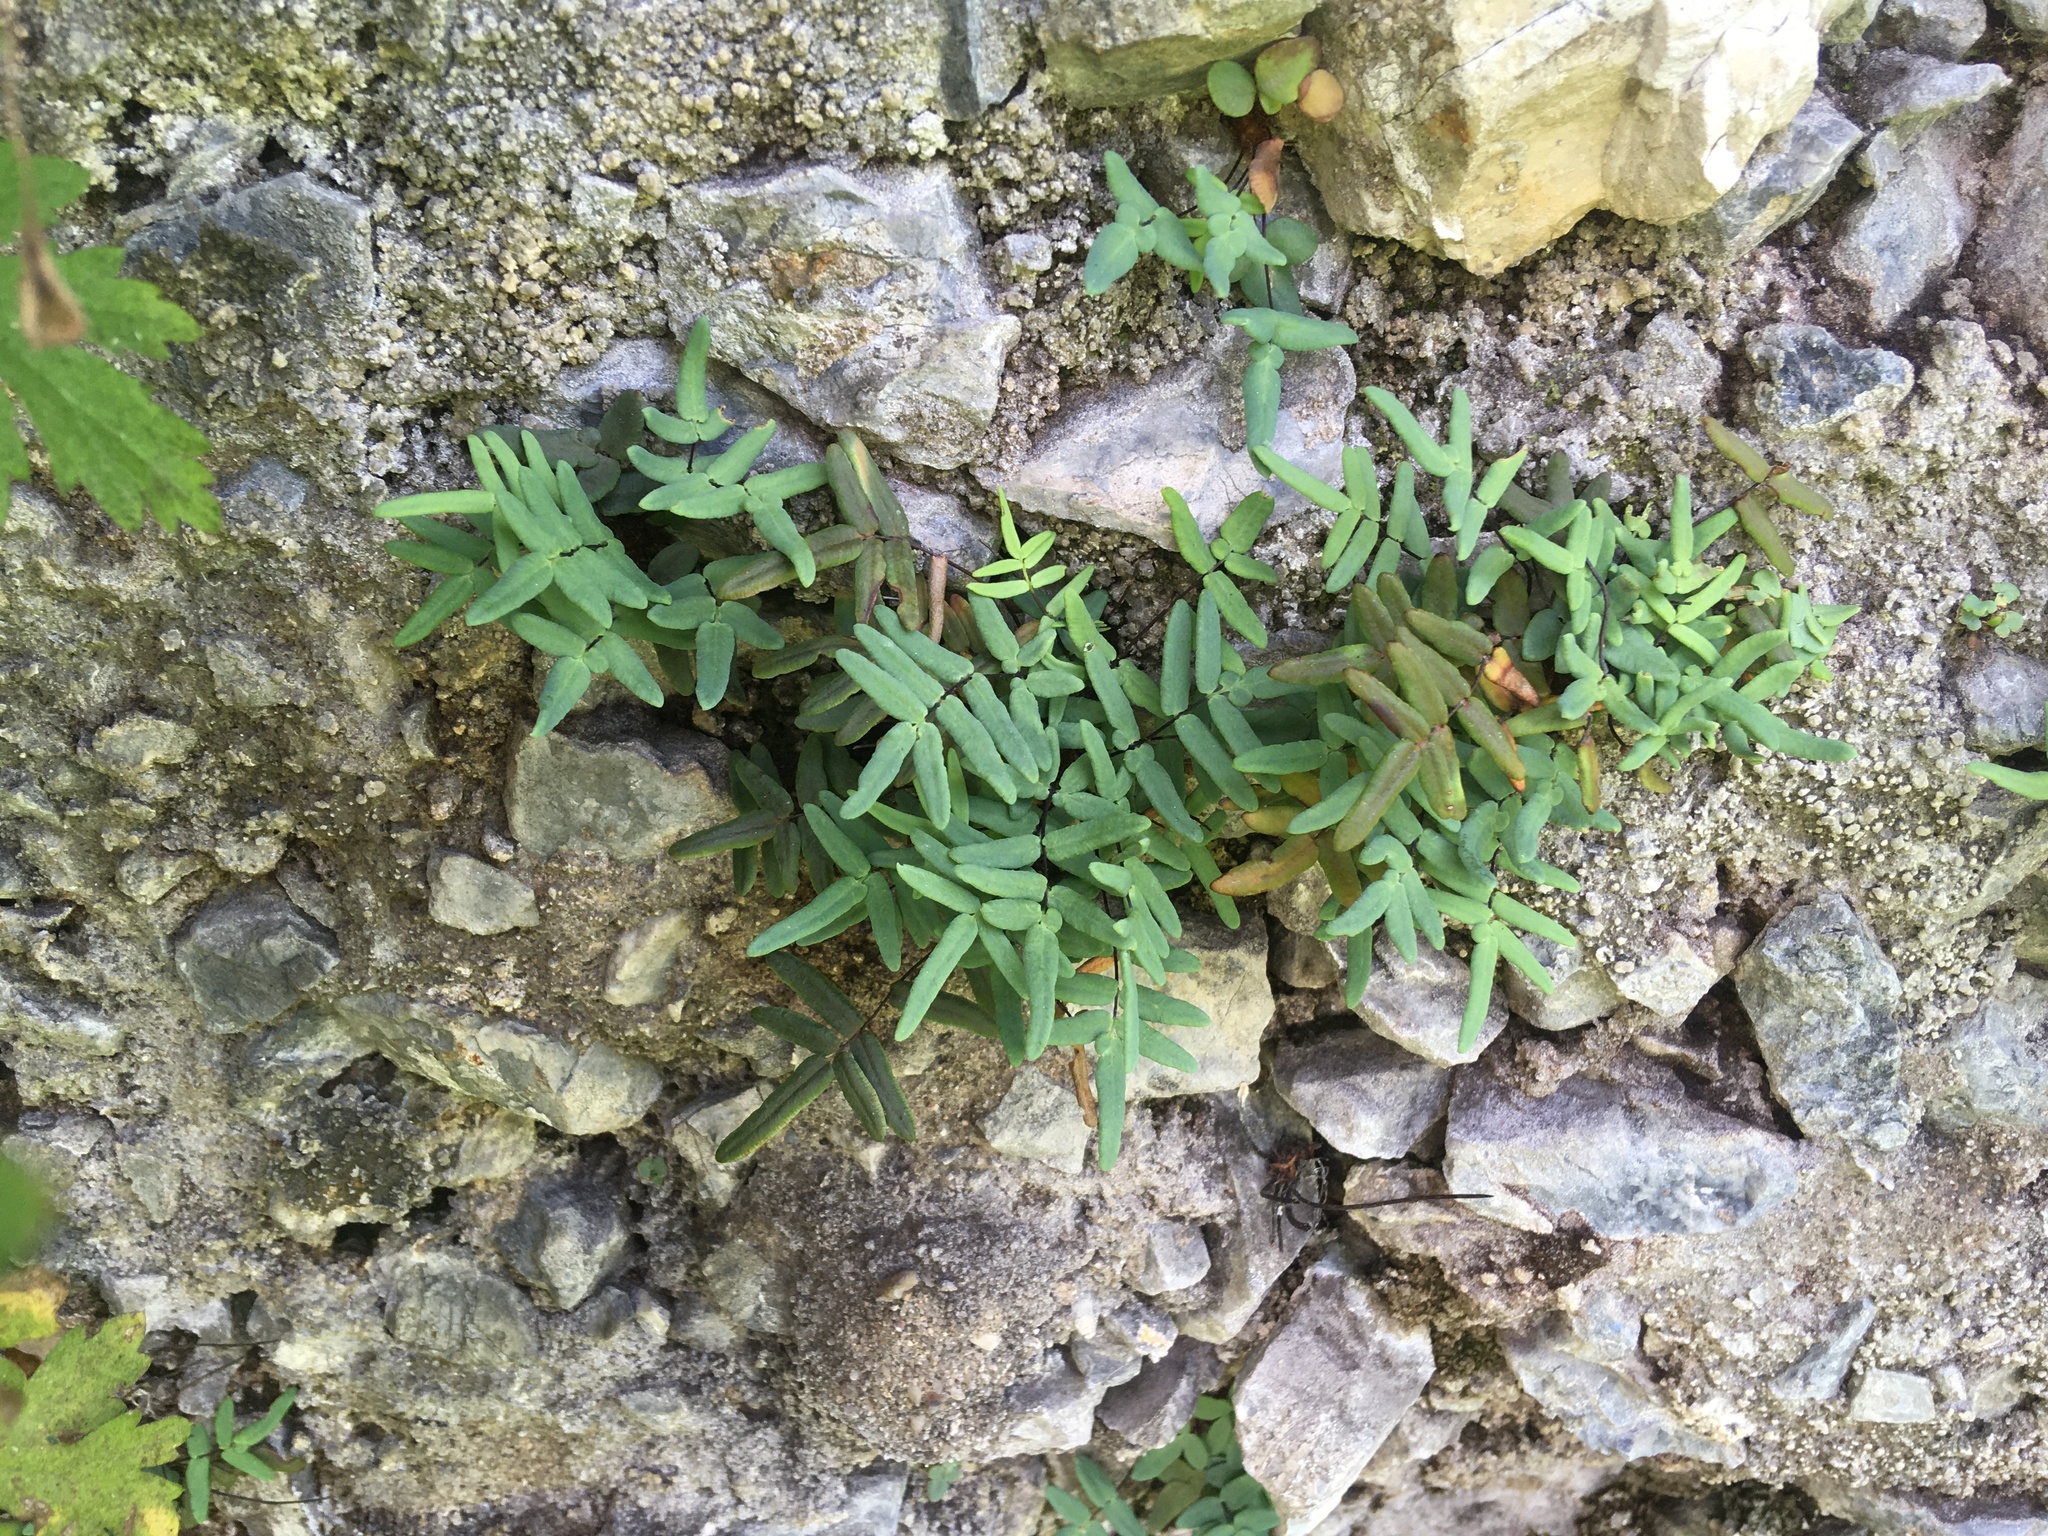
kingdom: Plantae
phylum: Tracheophyta
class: Polypodiopsida
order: Polypodiales
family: Pteridaceae
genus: Pellaea
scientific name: Pellaea glabella
